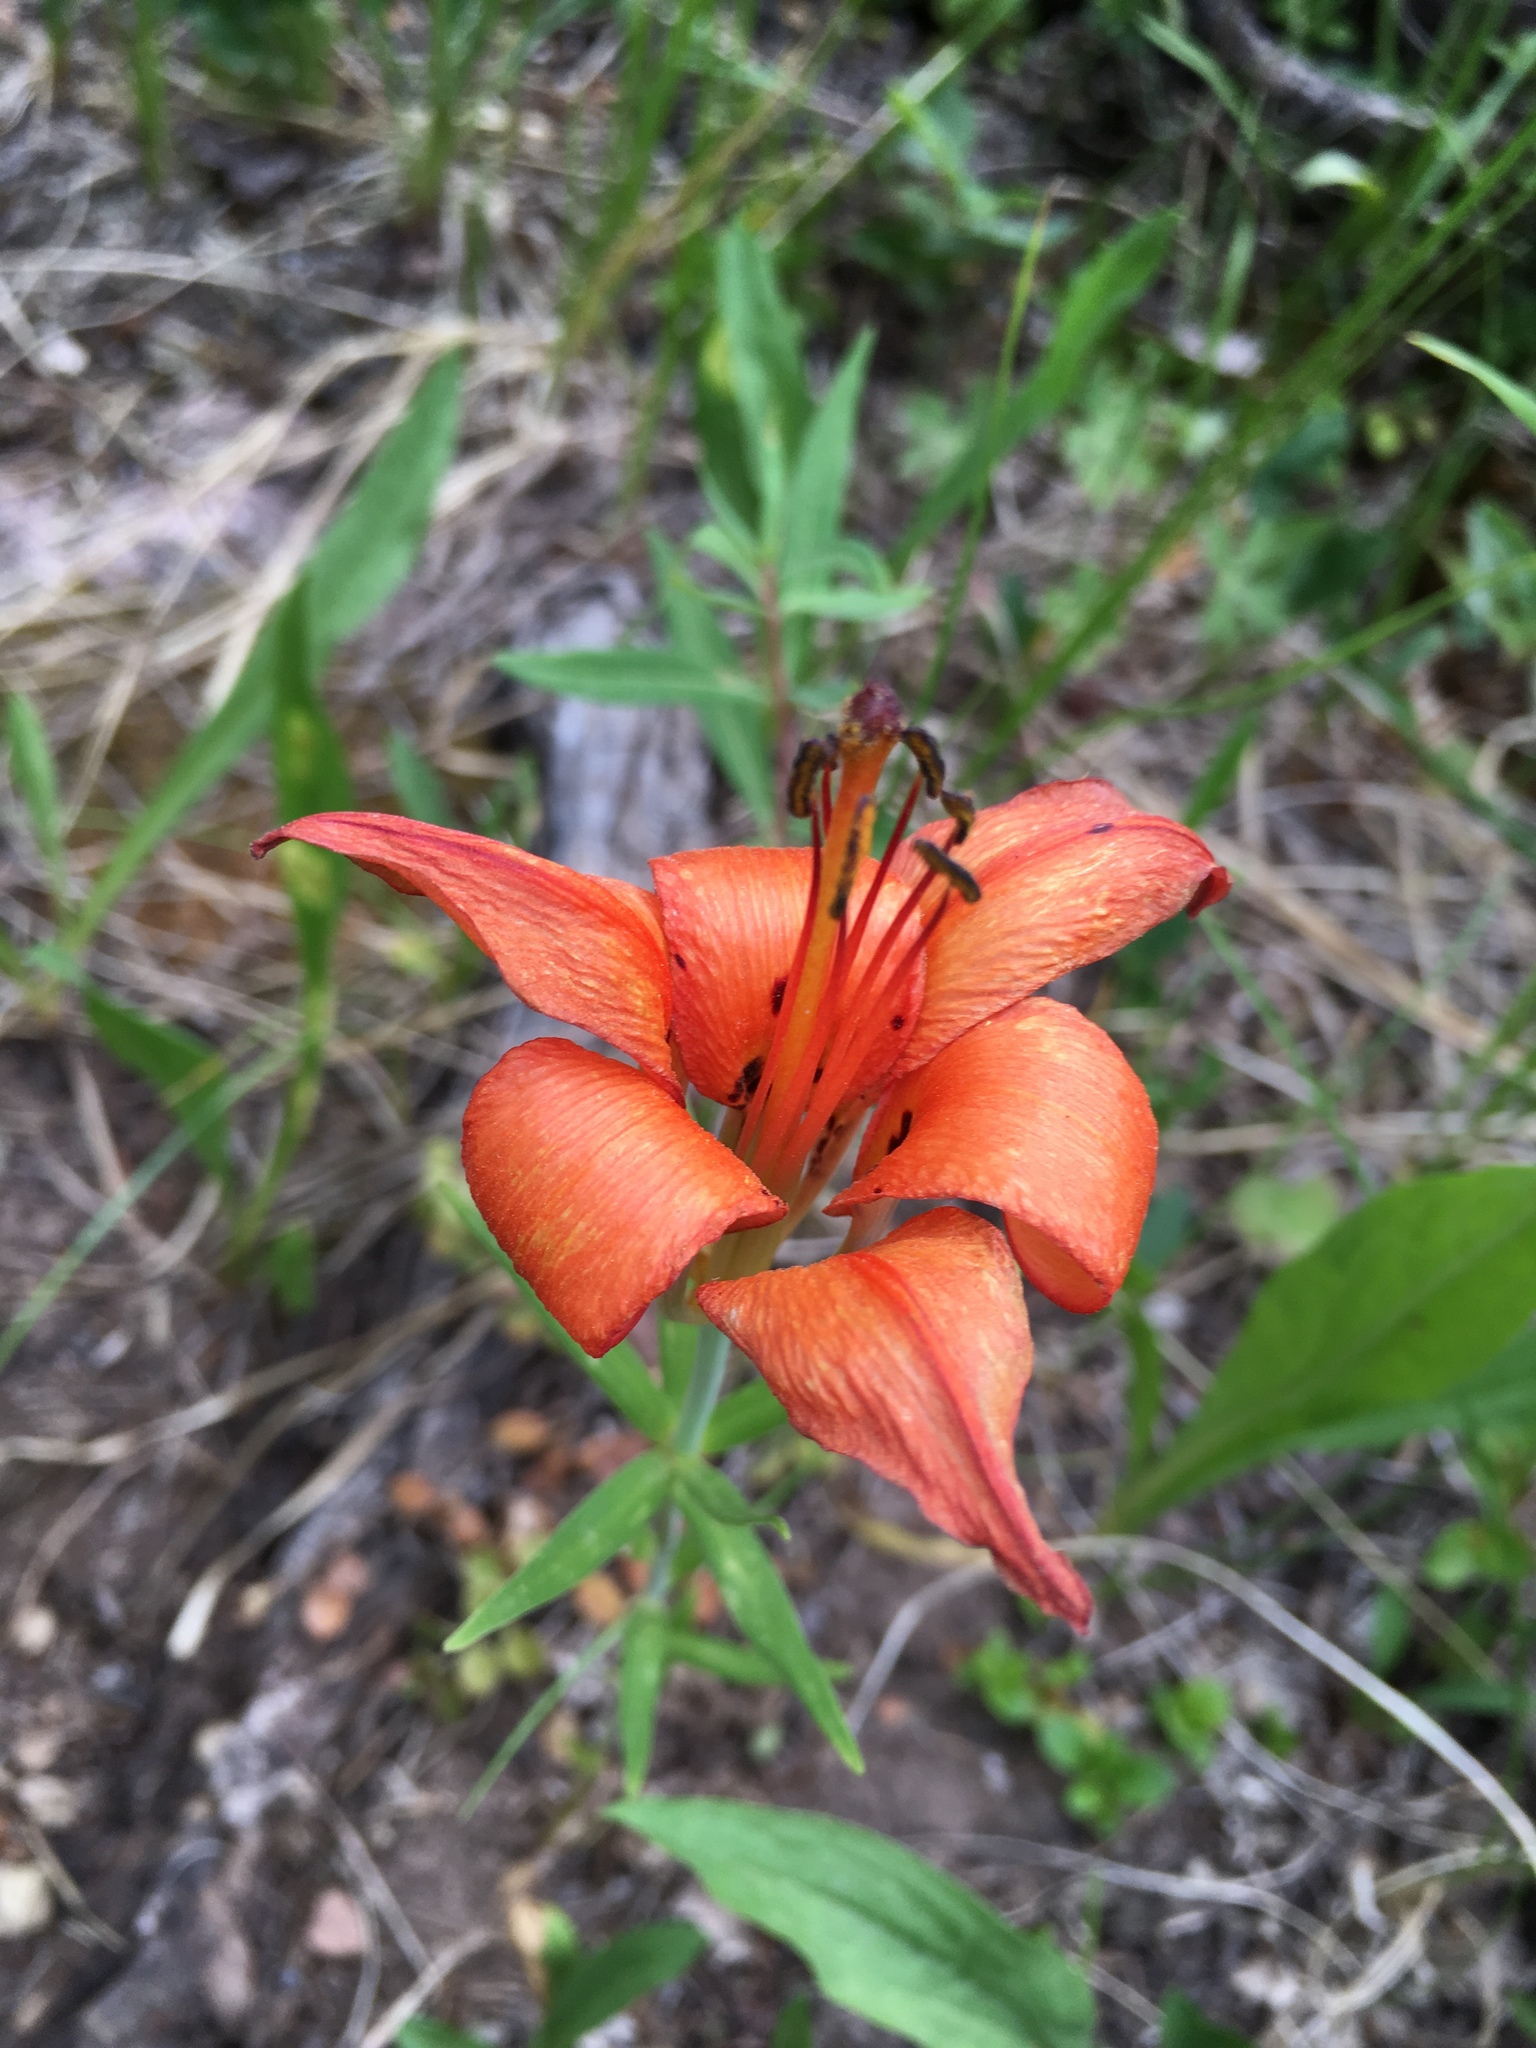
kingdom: Plantae
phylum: Tracheophyta
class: Liliopsida
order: Liliales
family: Liliaceae
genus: Lilium
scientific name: Lilium philadelphicum
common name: Red lily
